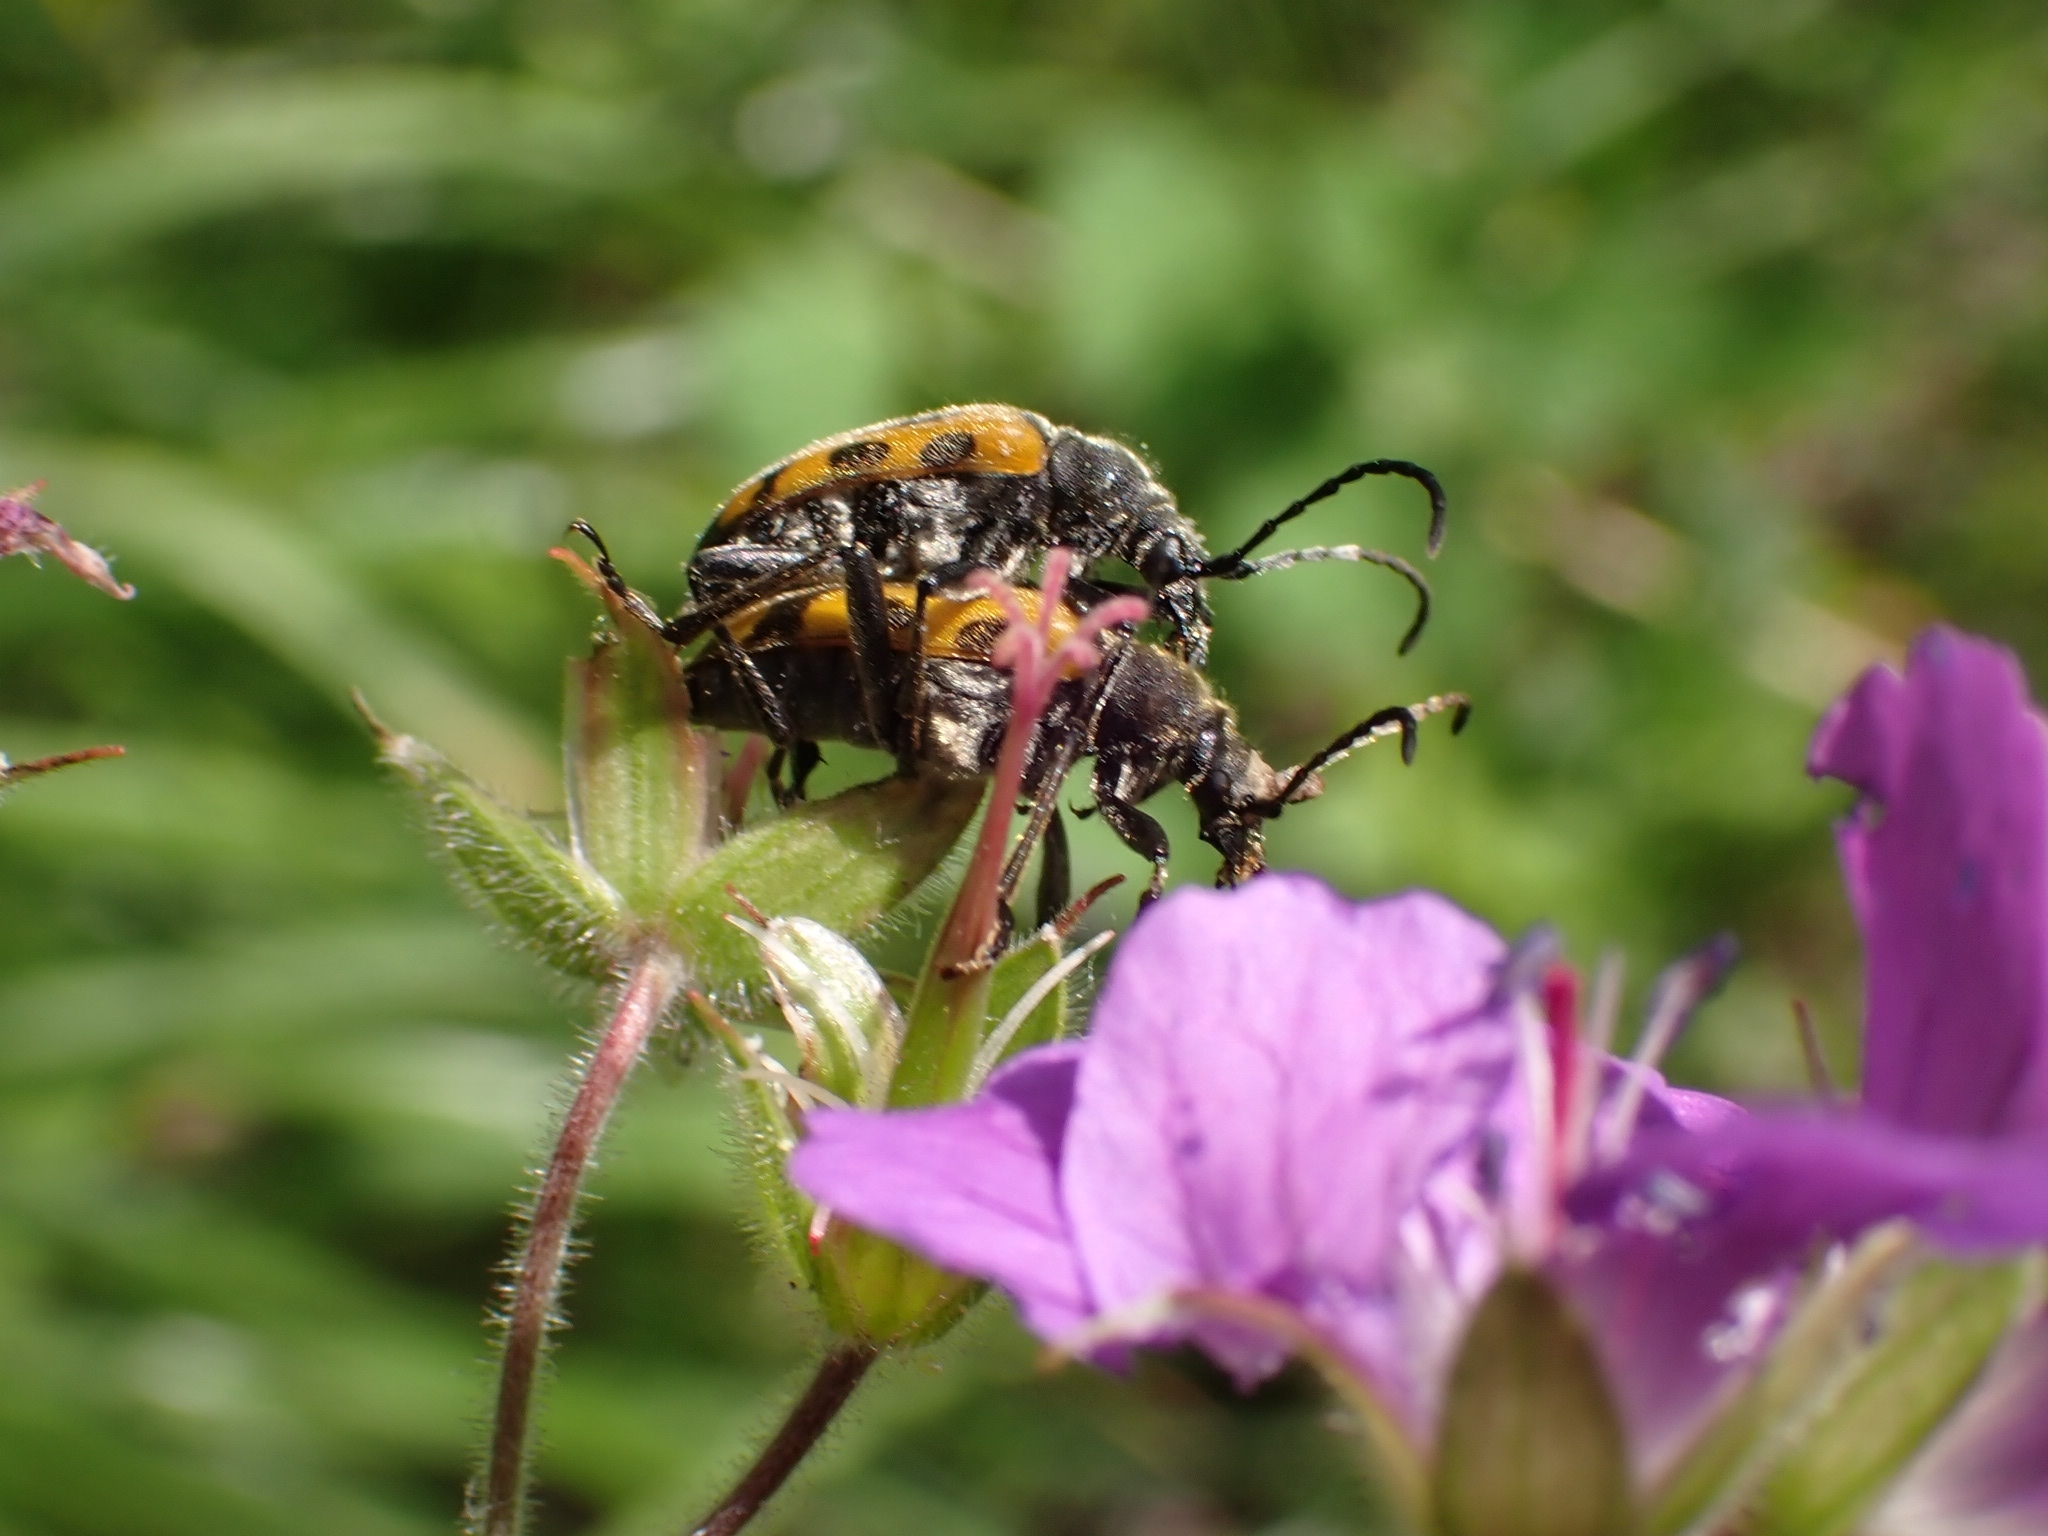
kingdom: Animalia
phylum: Arthropoda
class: Insecta
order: Coleoptera
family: Cerambycidae
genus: Brachyta
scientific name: Brachyta interrogationis
